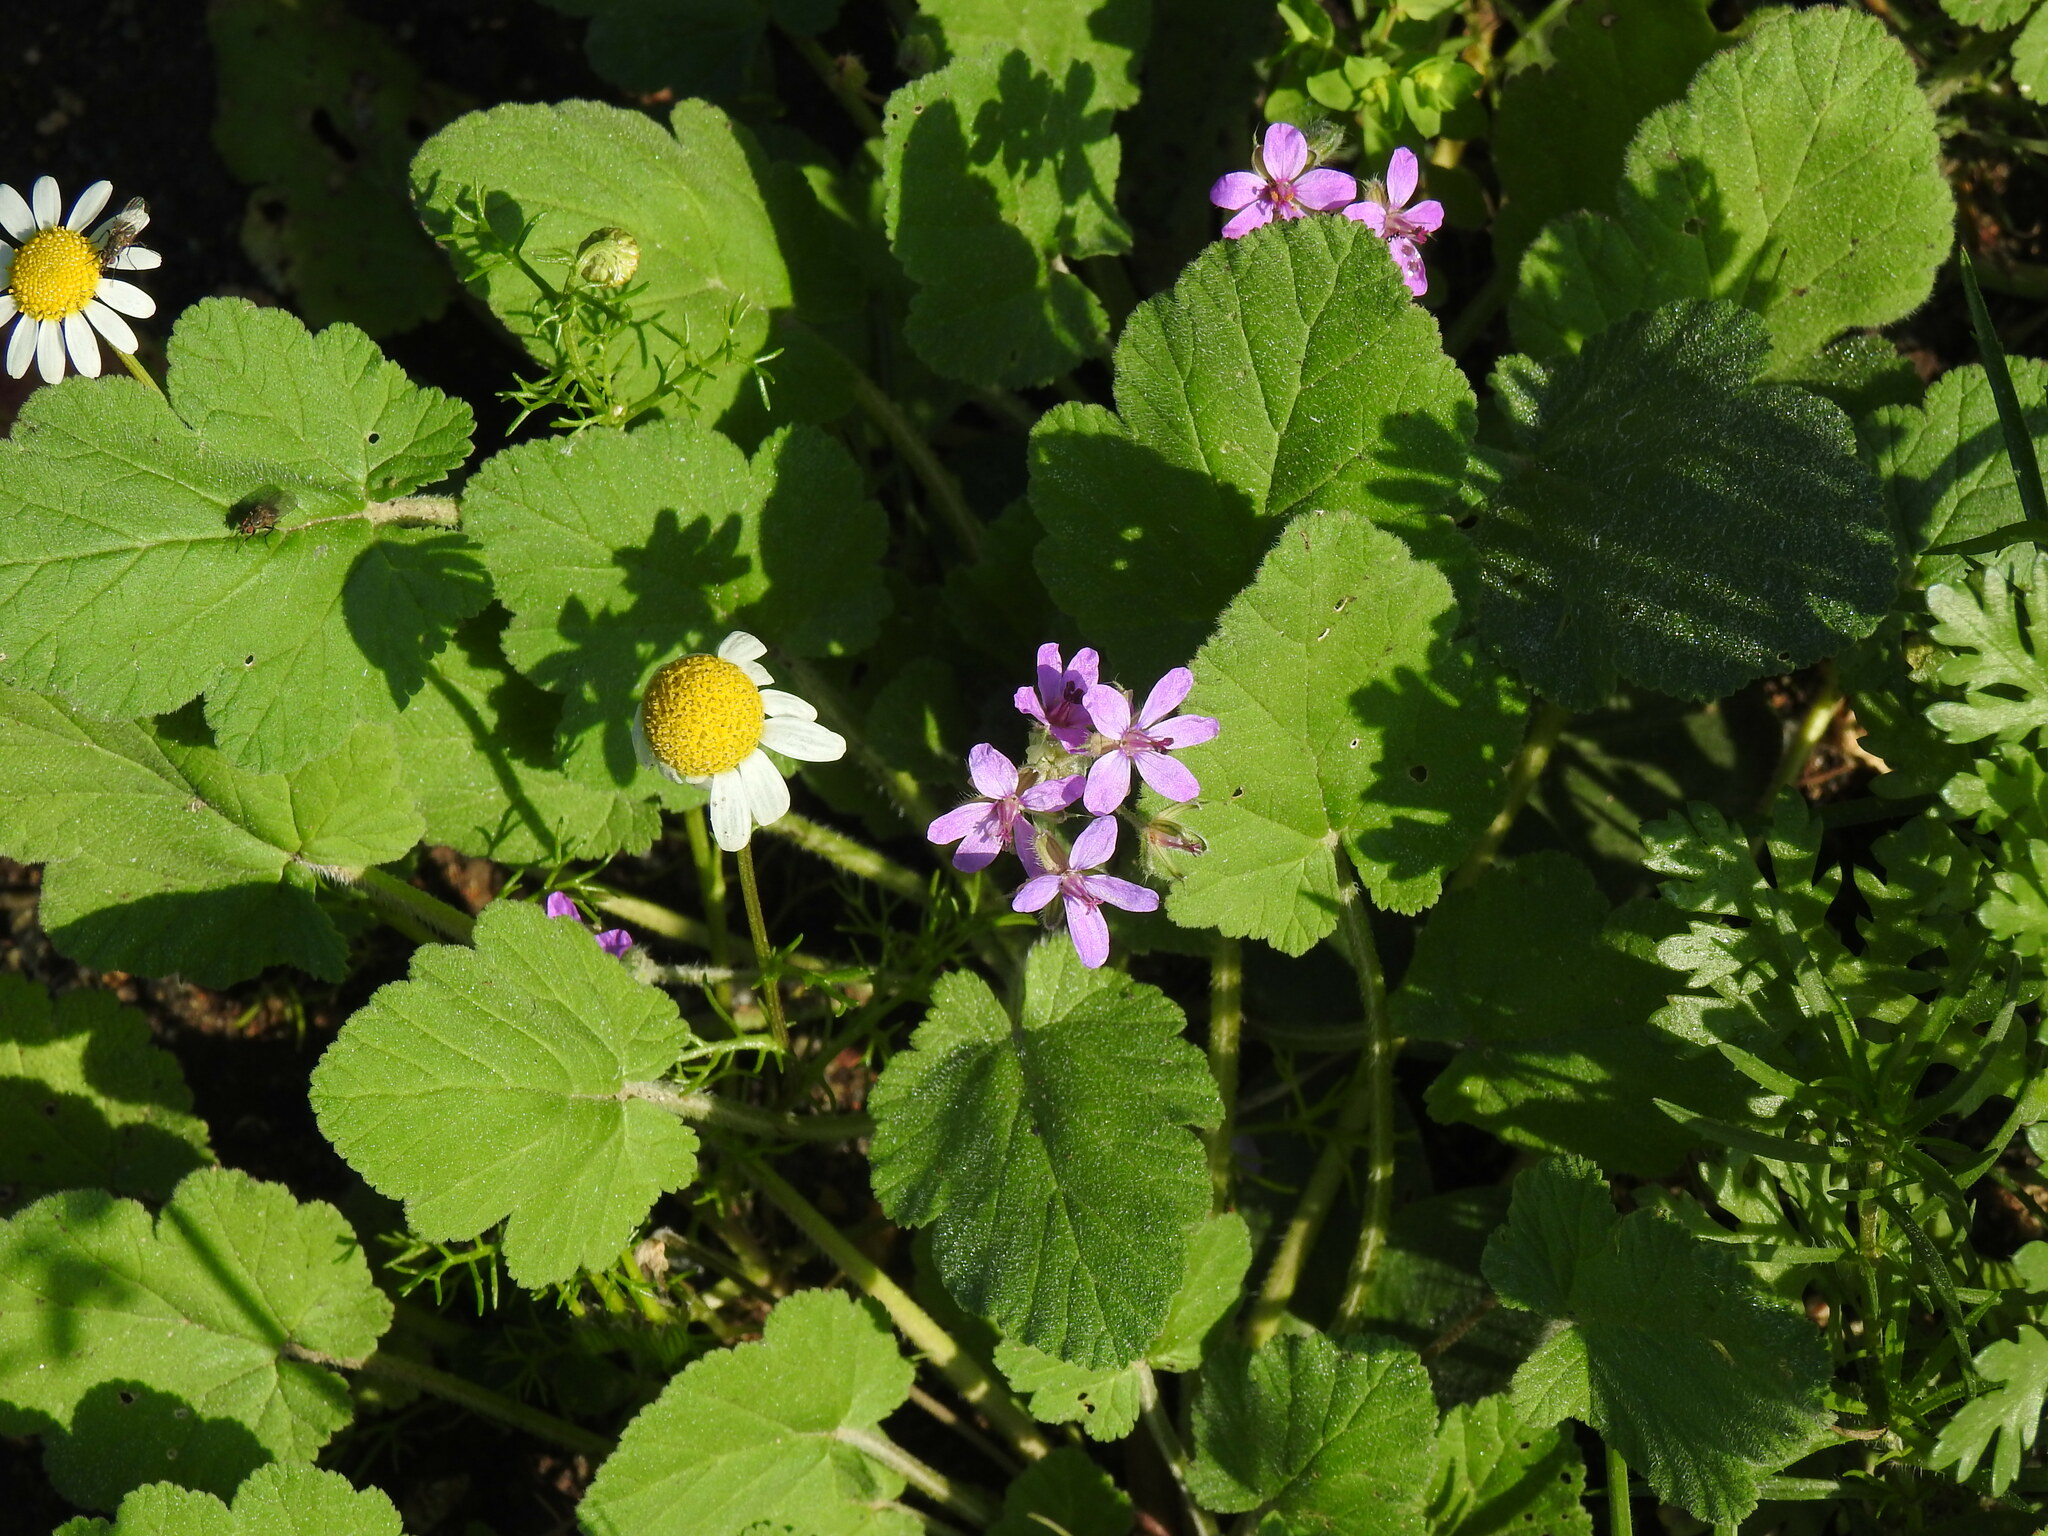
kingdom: Plantae
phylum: Tracheophyta
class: Magnoliopsida
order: Geraniales
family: Geraniaceae
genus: Erodium
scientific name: Erodium malacoides
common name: Soft stork's-bill
